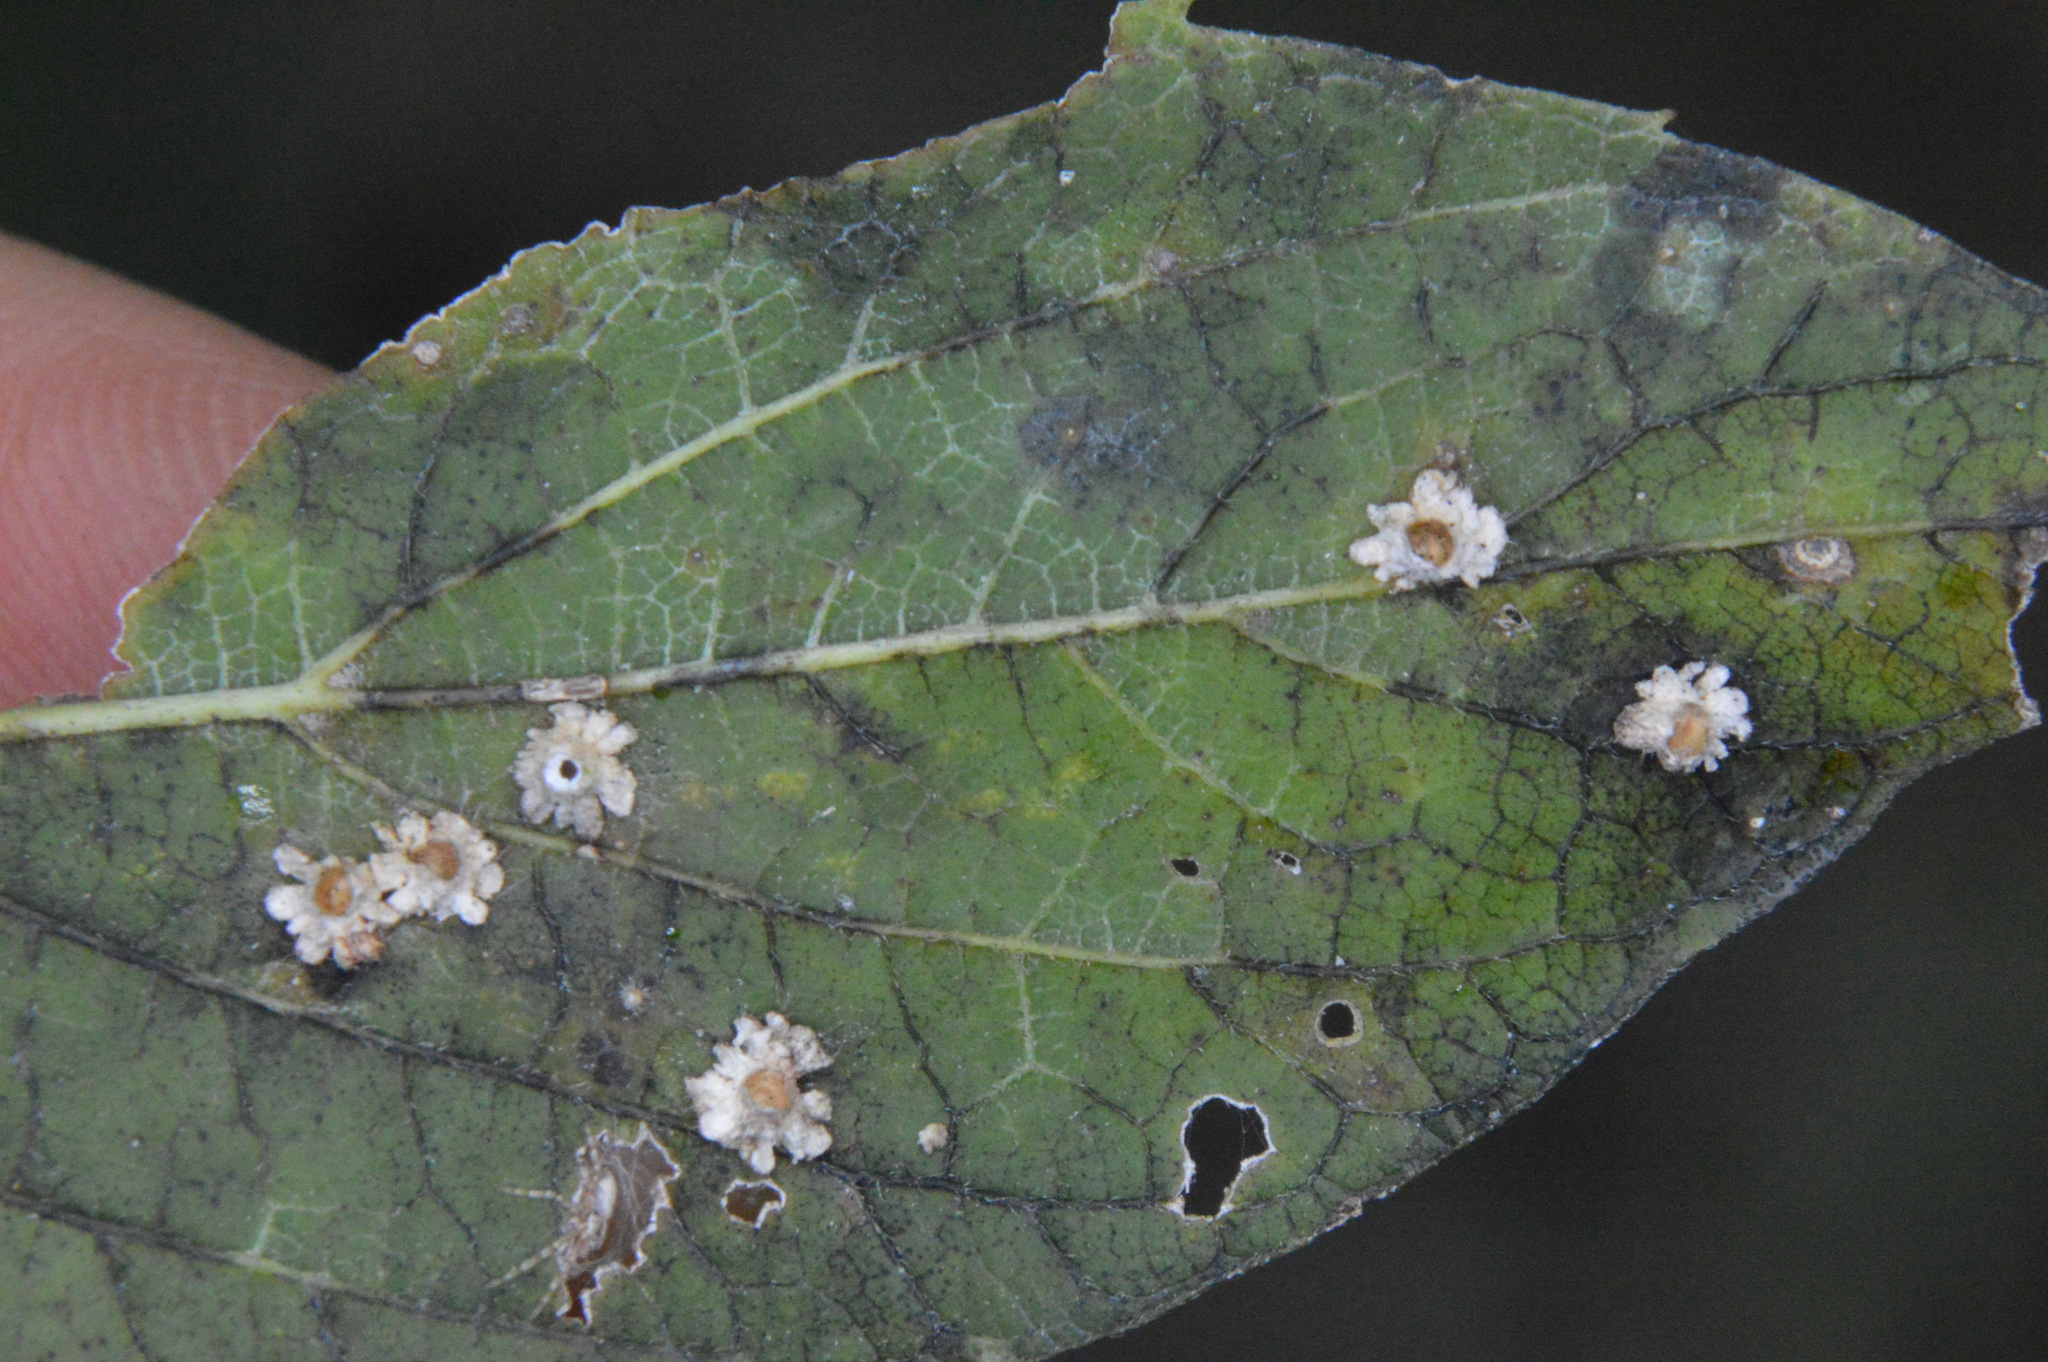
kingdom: Animalia
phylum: Arthropoda
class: Insecta
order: Diptera
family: Cecidomyiidae
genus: Celticecis
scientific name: Celticecis capsularis
